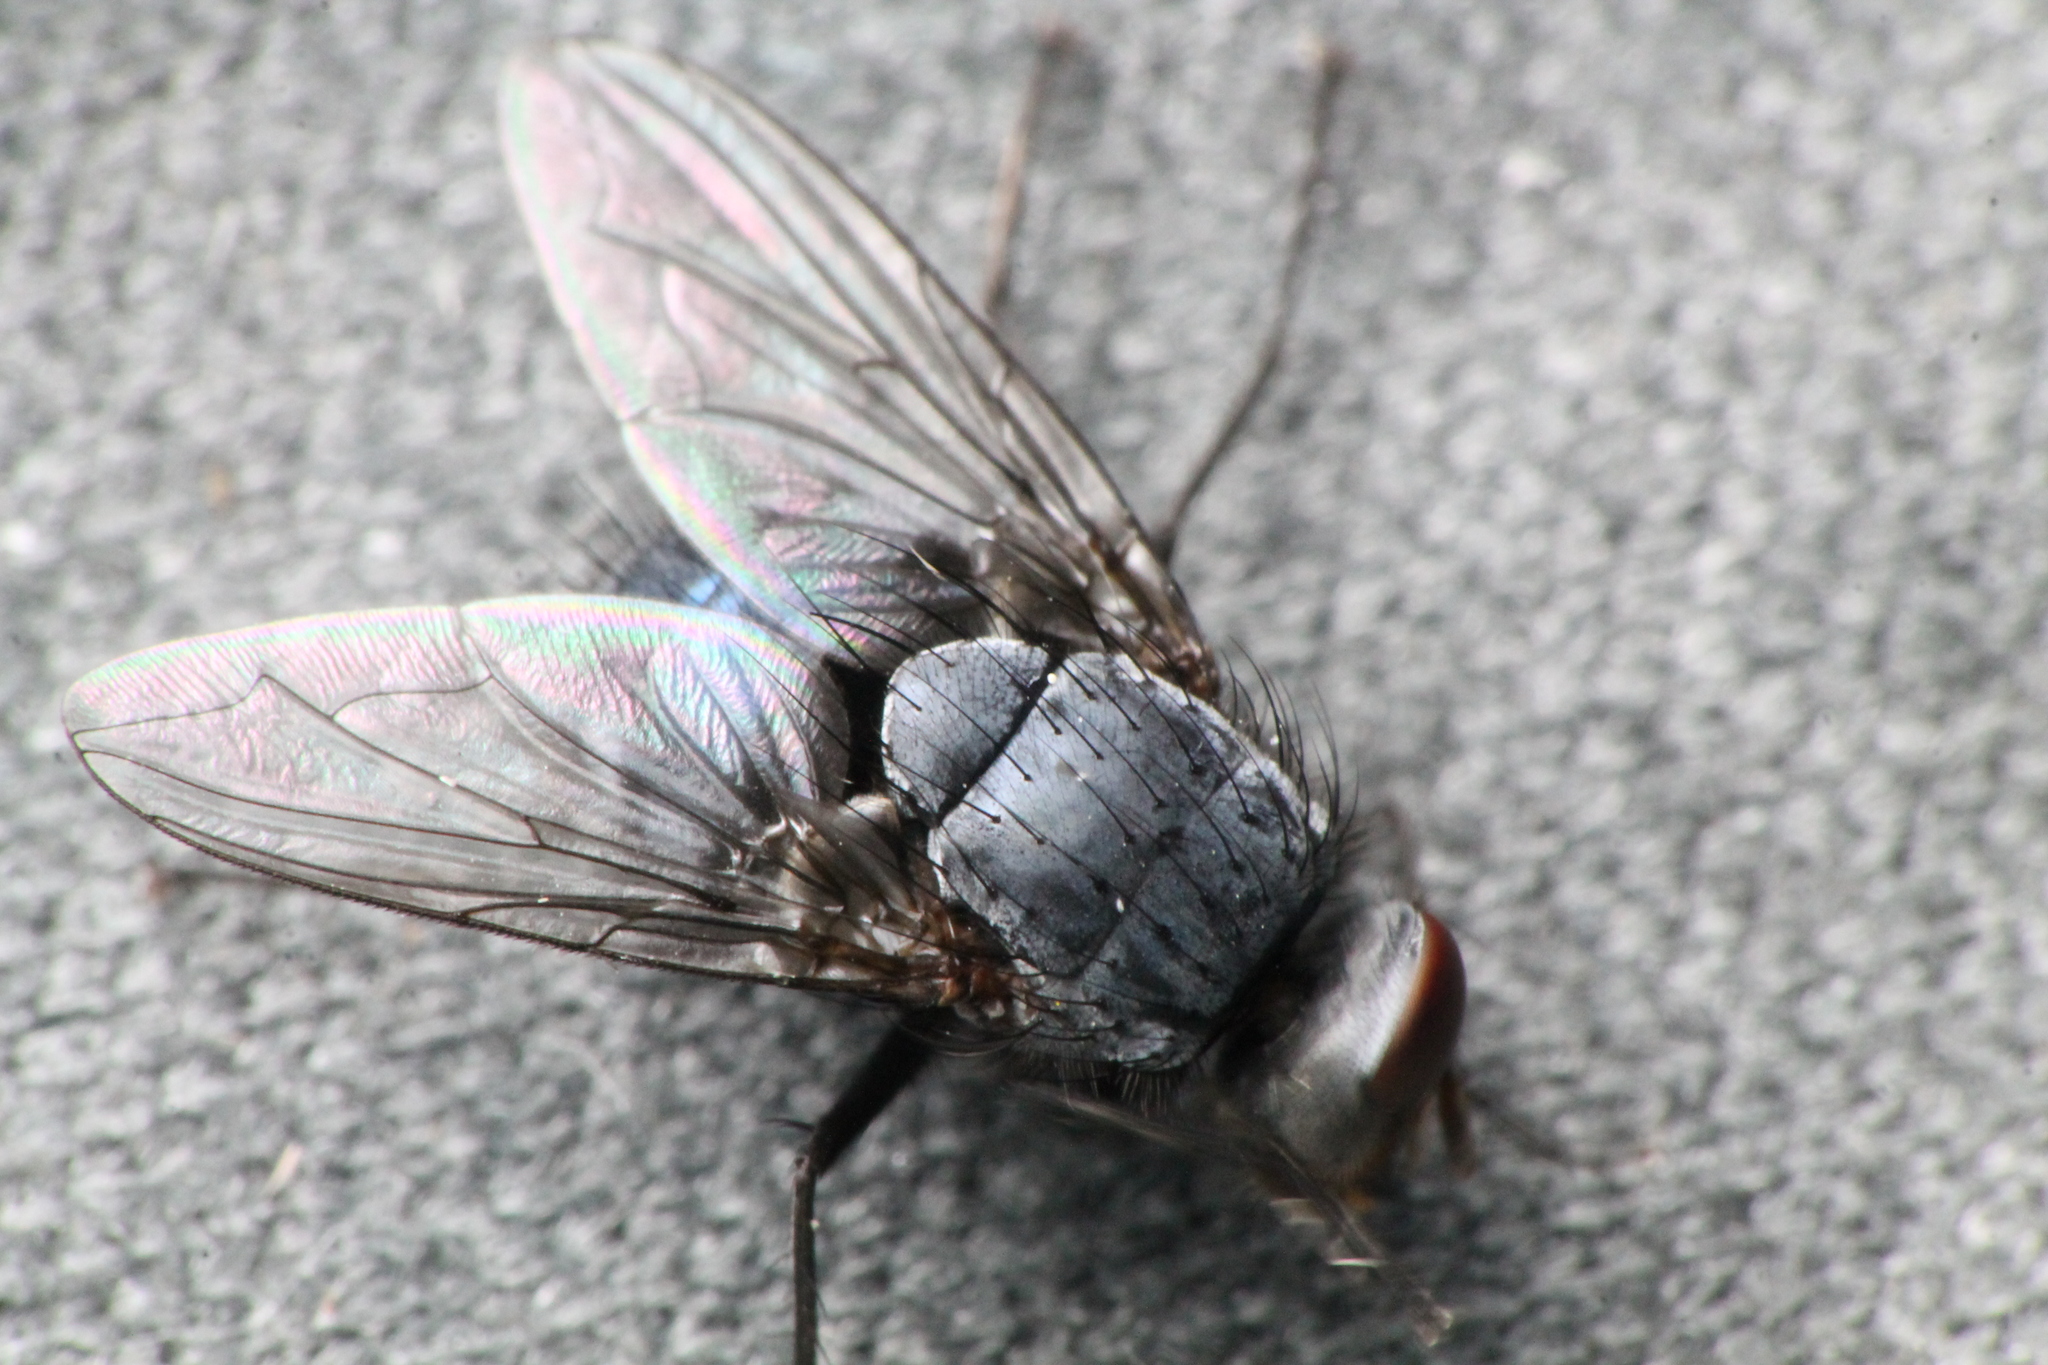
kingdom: Animalia
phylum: Arthropoda
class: Insecta
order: Diptera
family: Calliphoridae
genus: Calliphora
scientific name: Calliphora vicina
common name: Common blow flie
